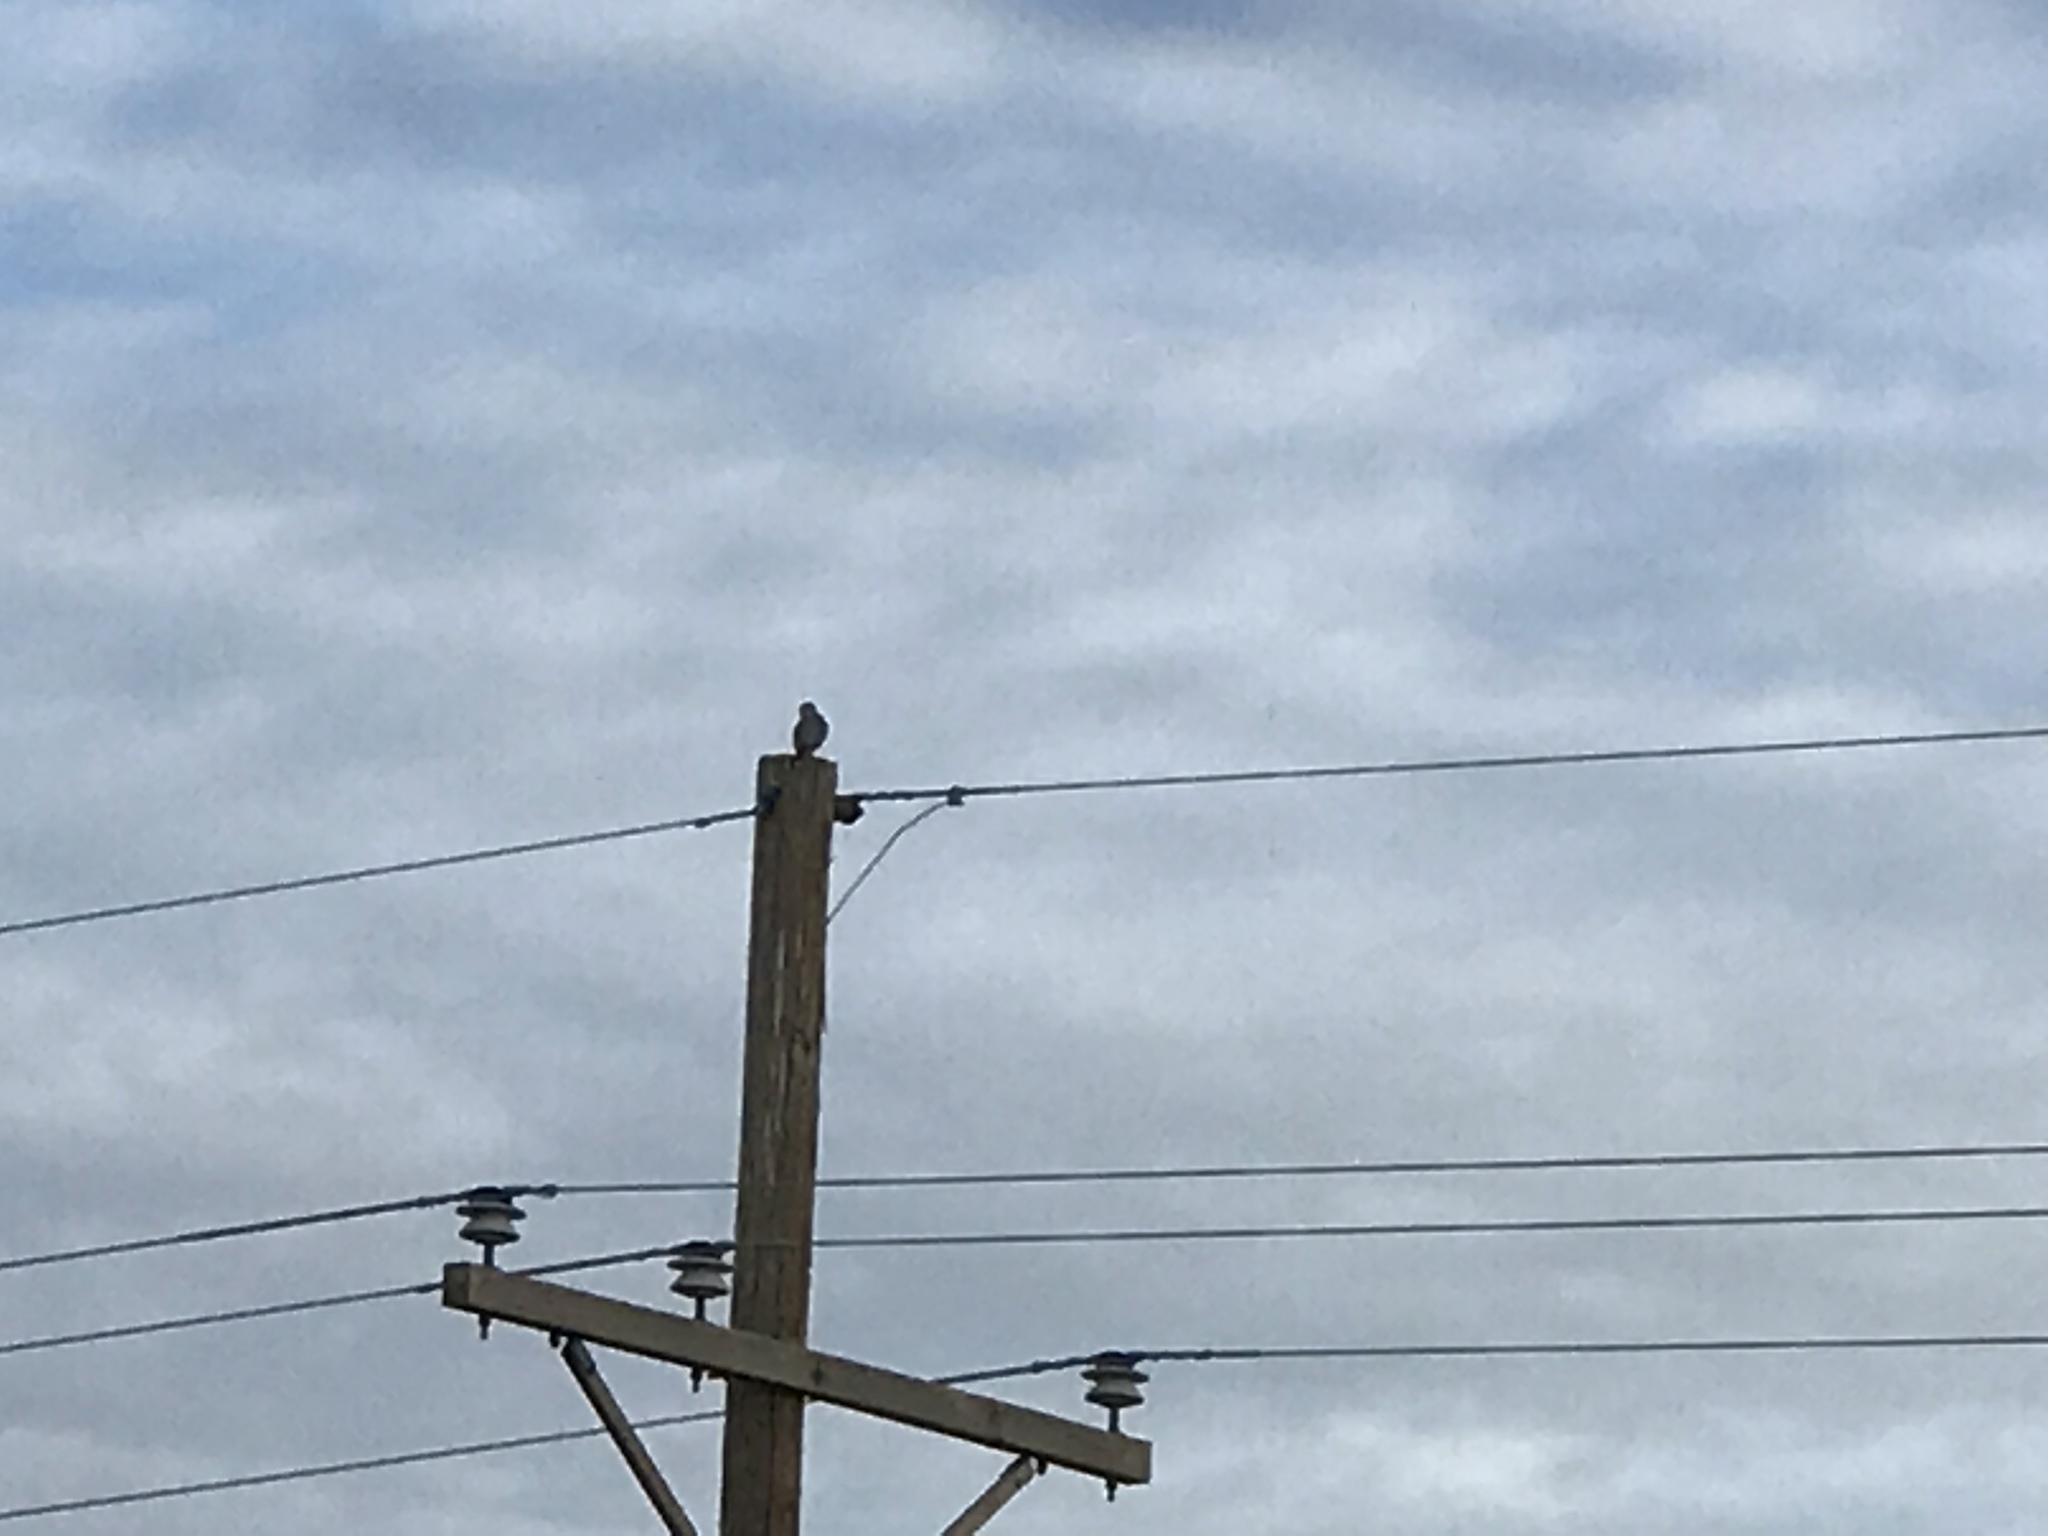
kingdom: Animalia
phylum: Chordata
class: Aves
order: Falconiformes
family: Falconidae
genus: Falco
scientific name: Falco columbarius
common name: Merlin
